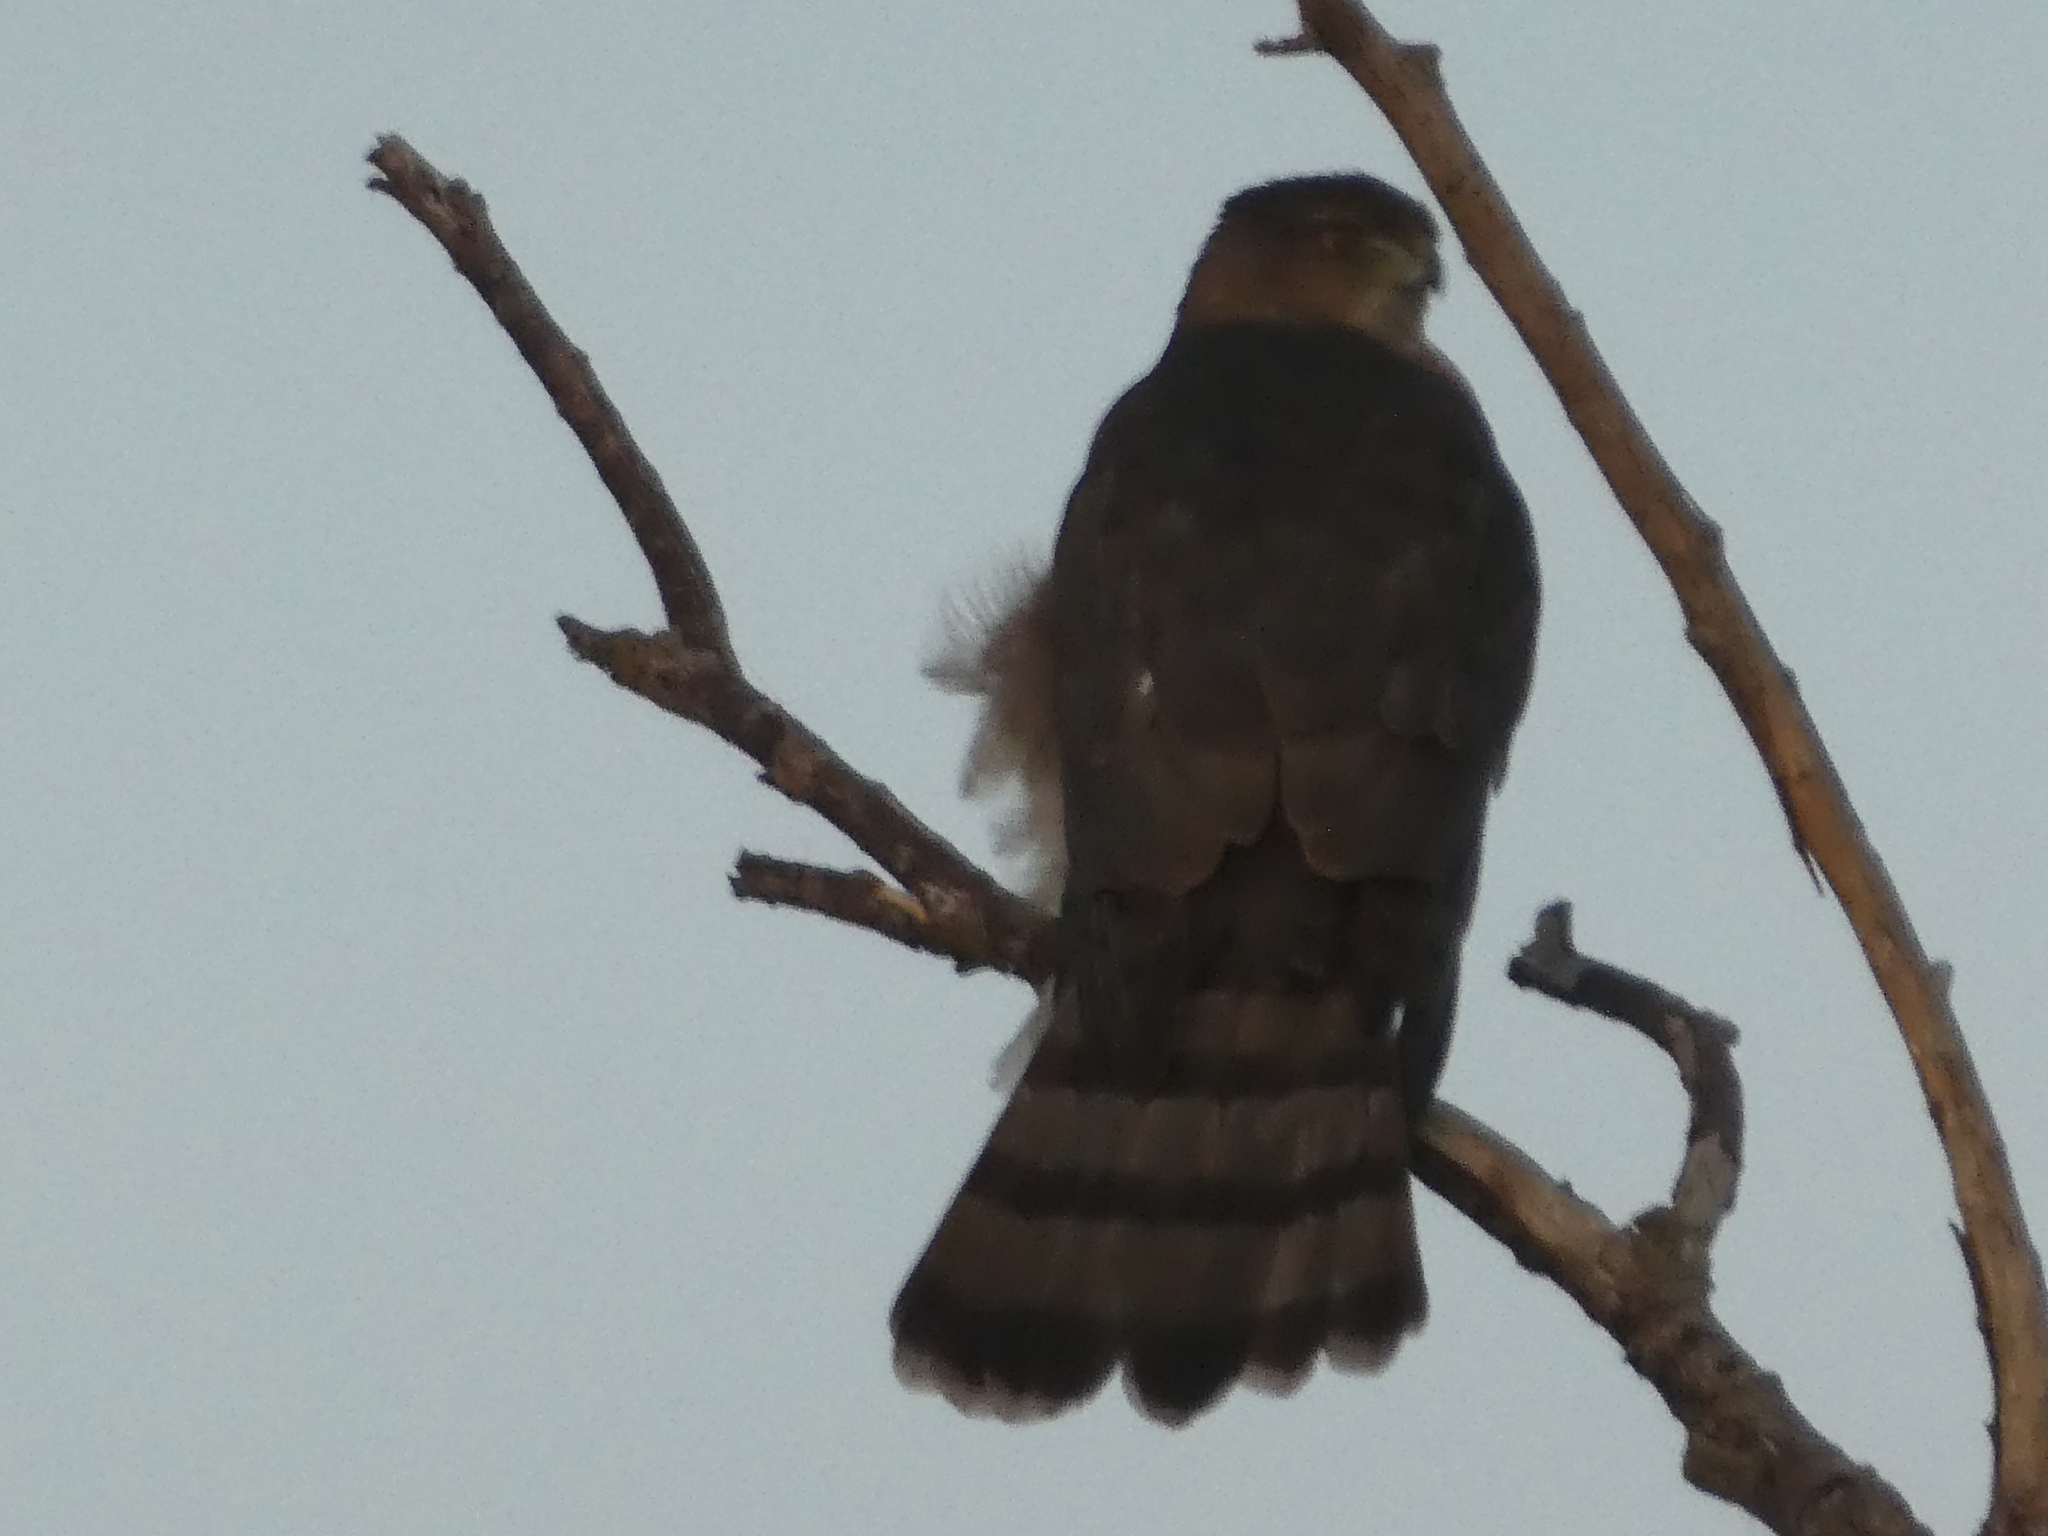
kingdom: Animalia
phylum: Chordata
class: Aves
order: Accipitriformes
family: Accipitridae
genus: Accipiter
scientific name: Accipiter cooperii
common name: Cooper's hawk
